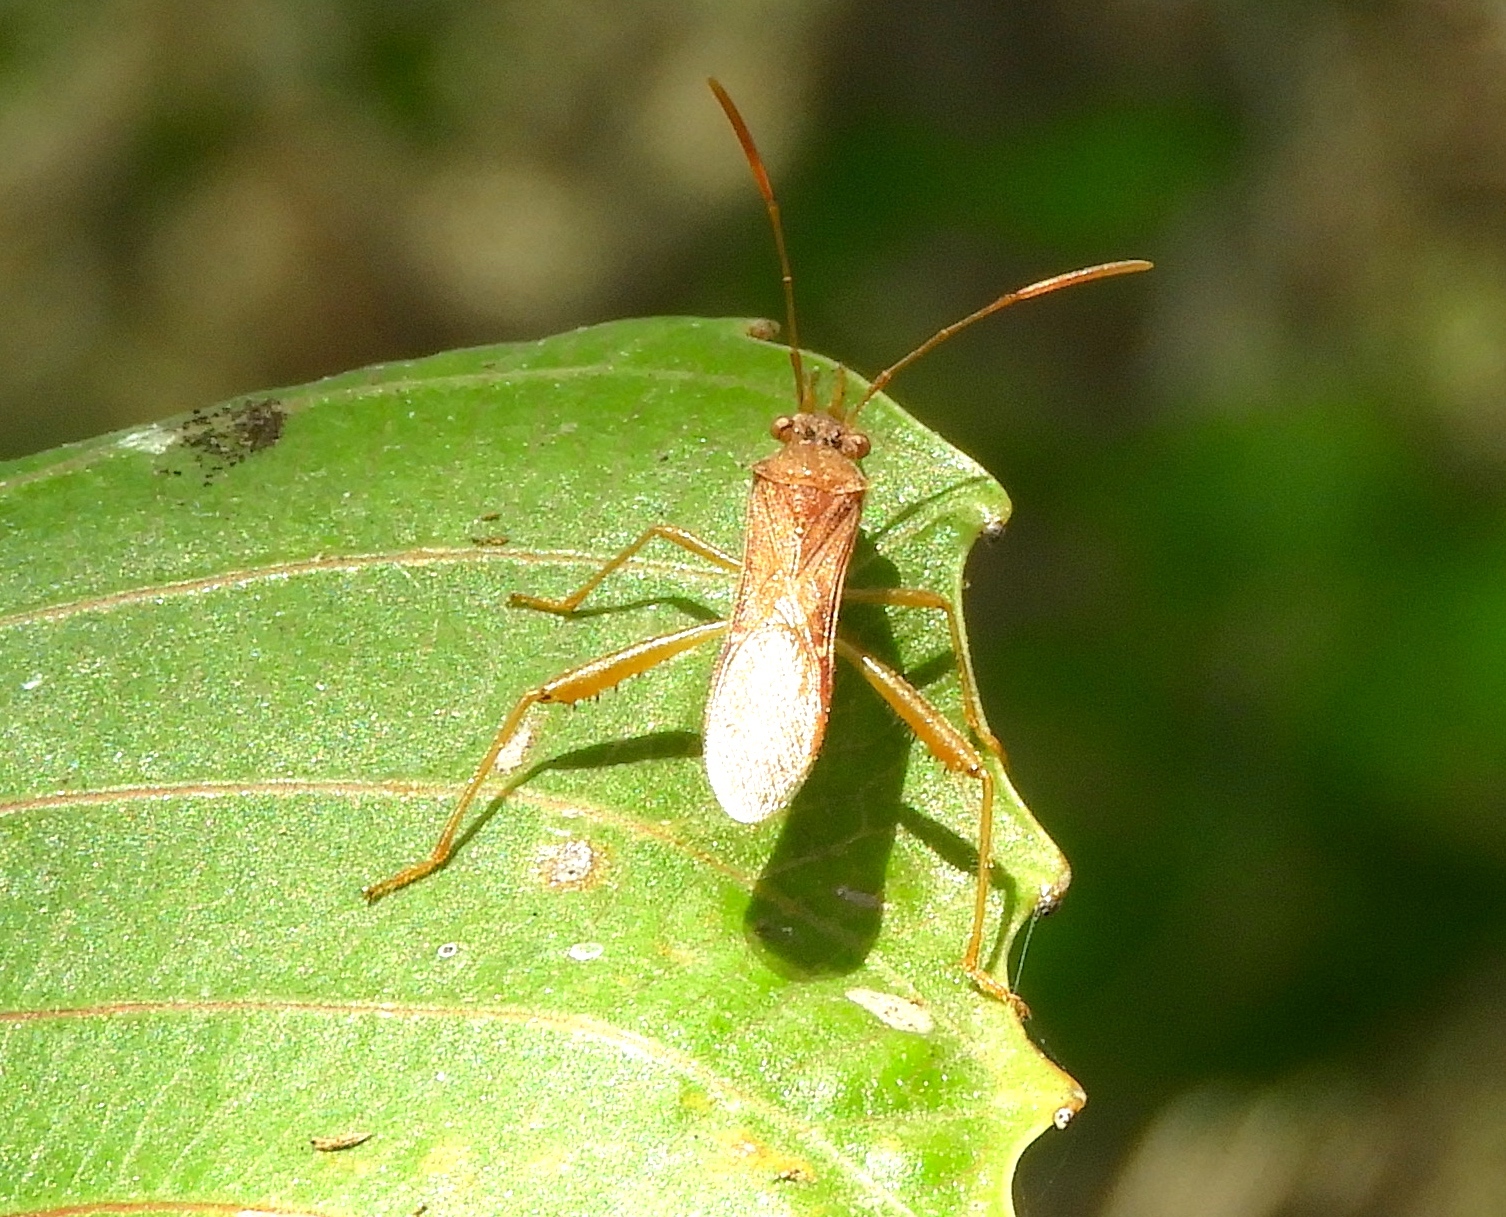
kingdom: Animalia
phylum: Arthropoda
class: Insecta
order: Hemiptera
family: Alydidae
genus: Burtinus
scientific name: Burtinus notatipennis
